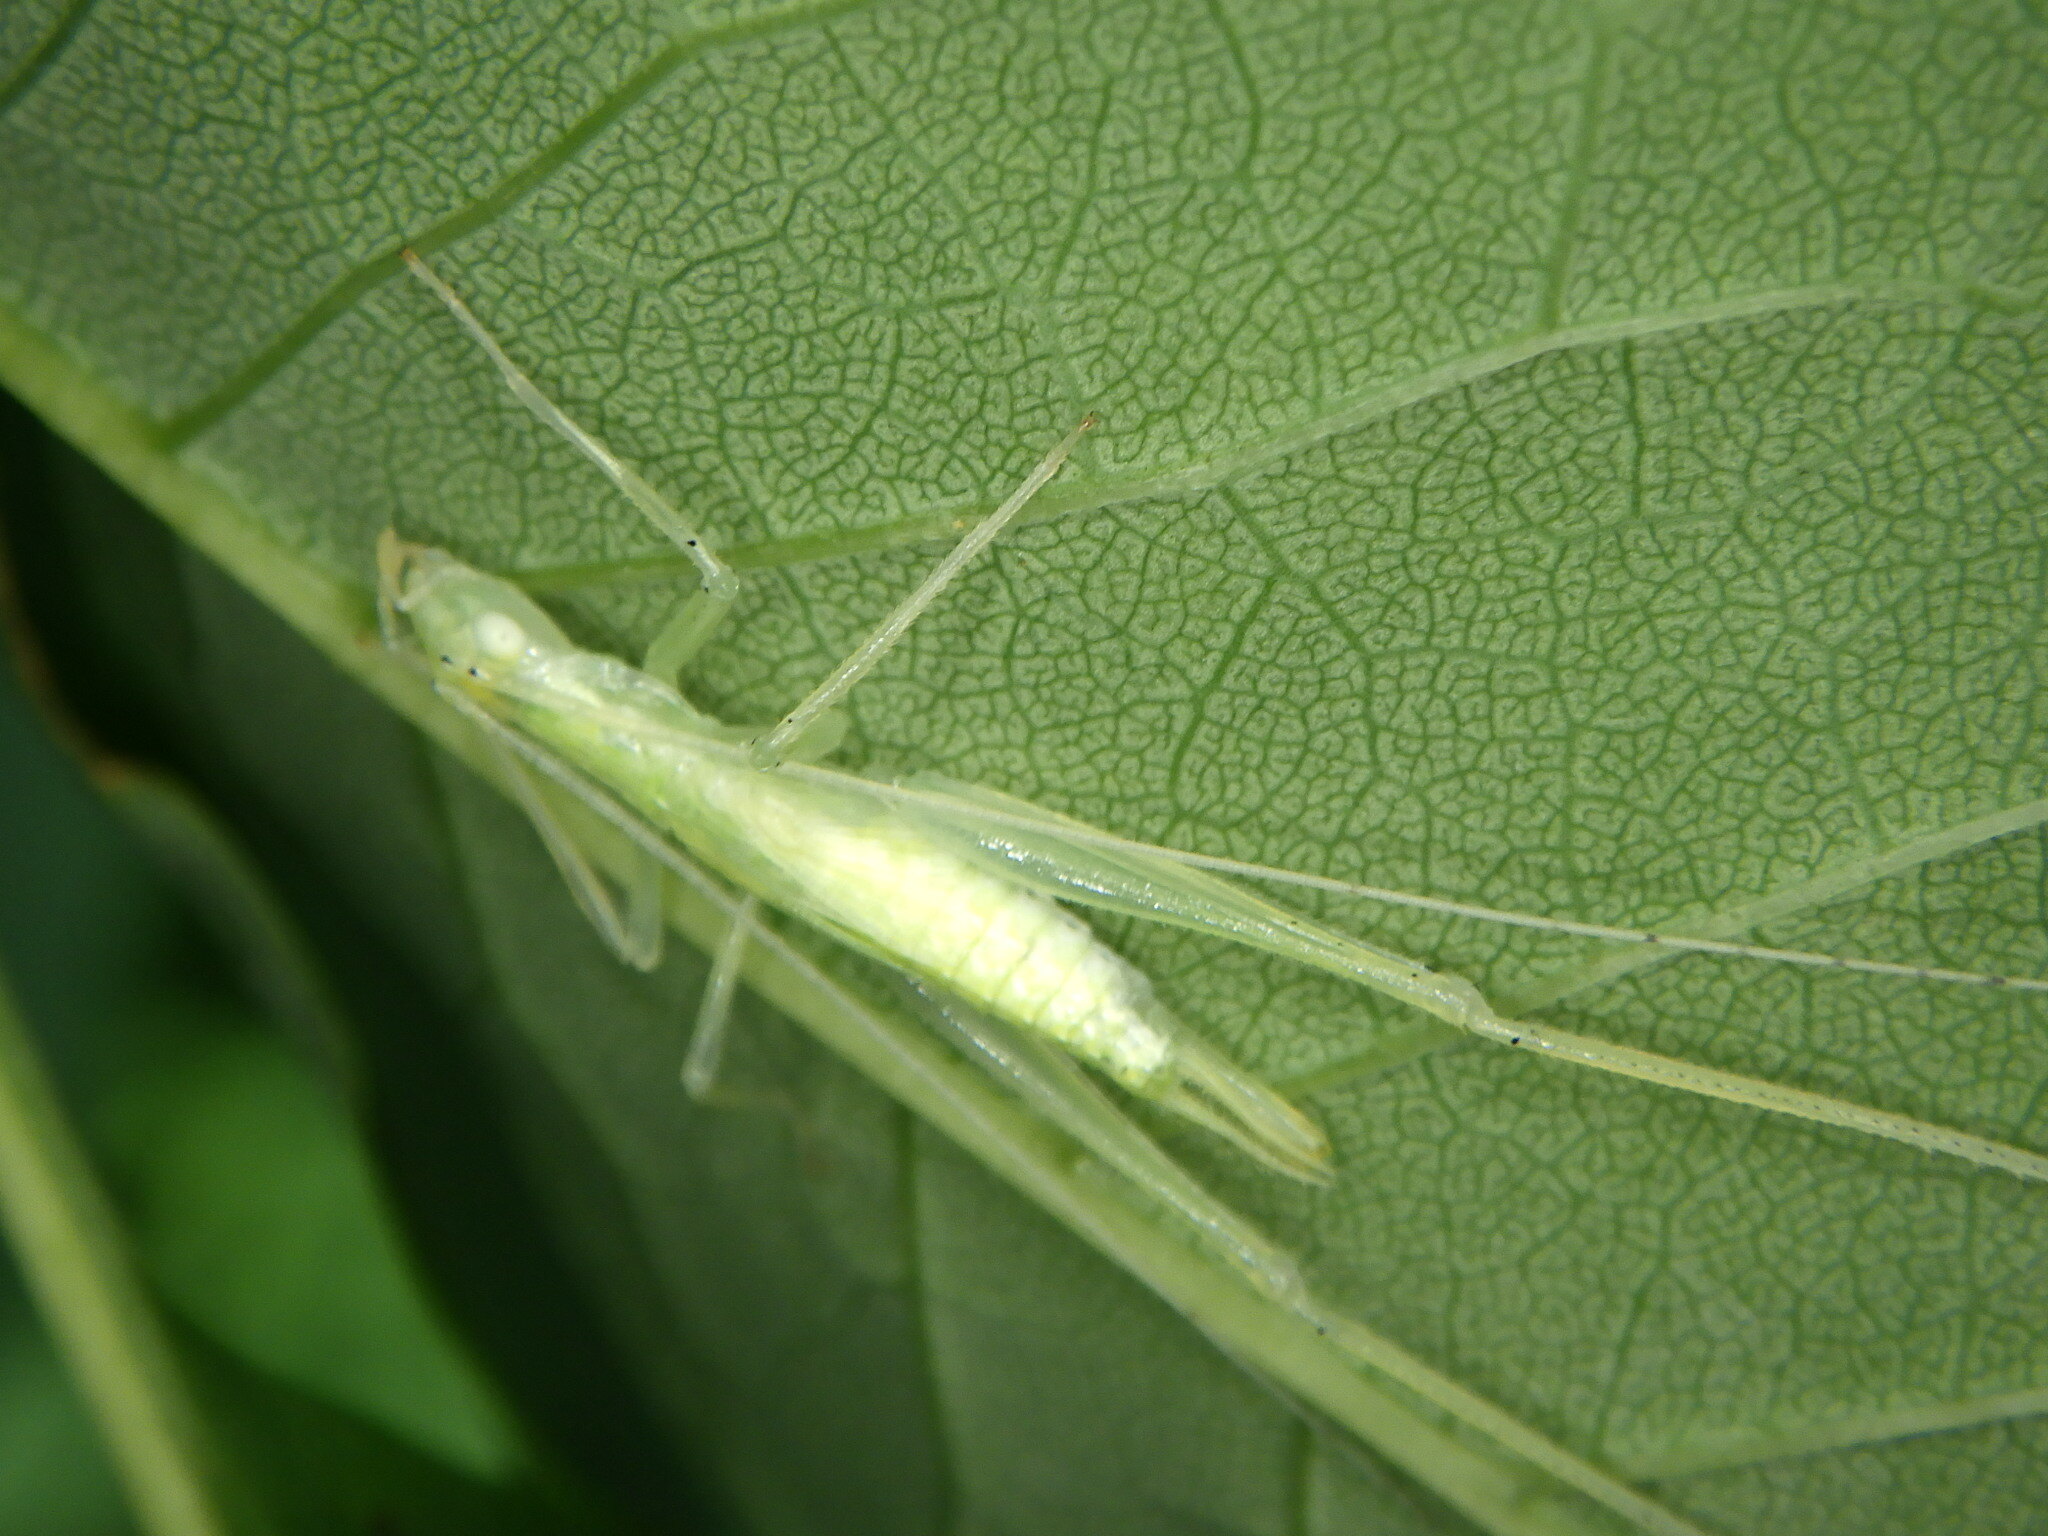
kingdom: Animalia
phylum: Arthropoda
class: Insecta
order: Orthoptera
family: Gryllidae
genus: Oecanthus
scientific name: Oecanthus
